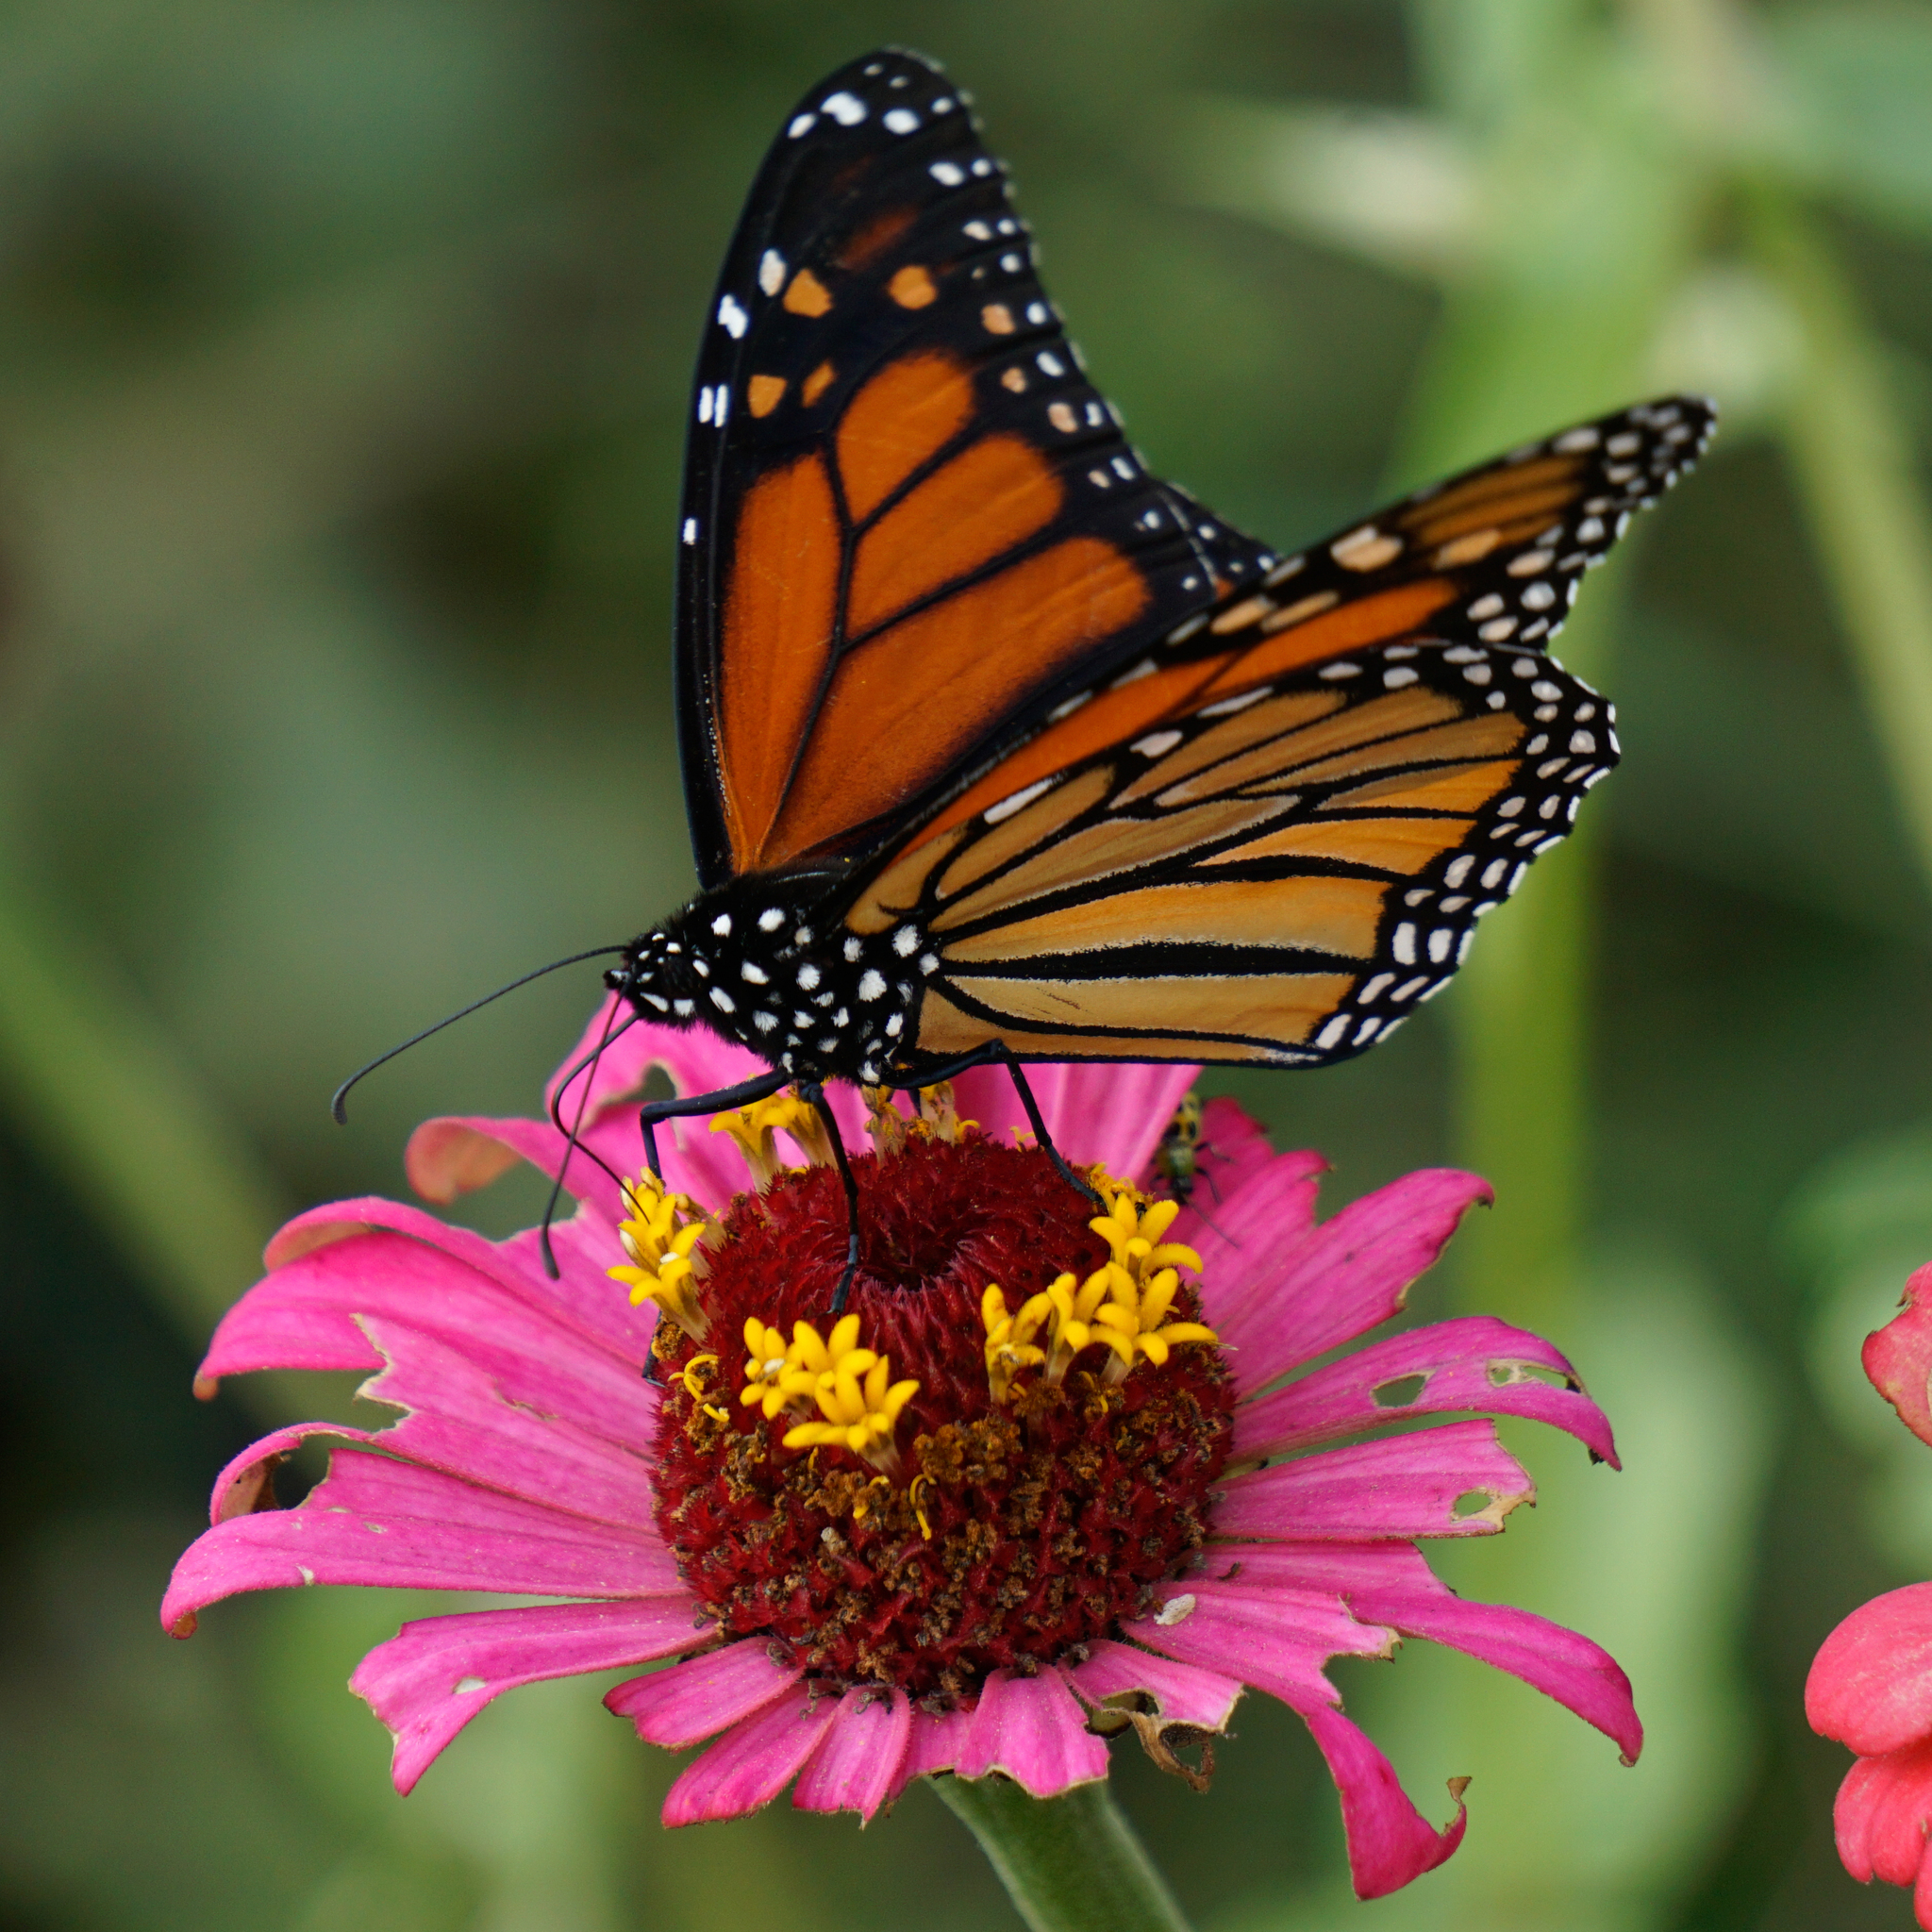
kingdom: Animalia
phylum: Arthropoda
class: Insecta
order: Lepidoptera
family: Nymphalidae
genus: Danaus
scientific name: Danaus plexippus
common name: Monarch
